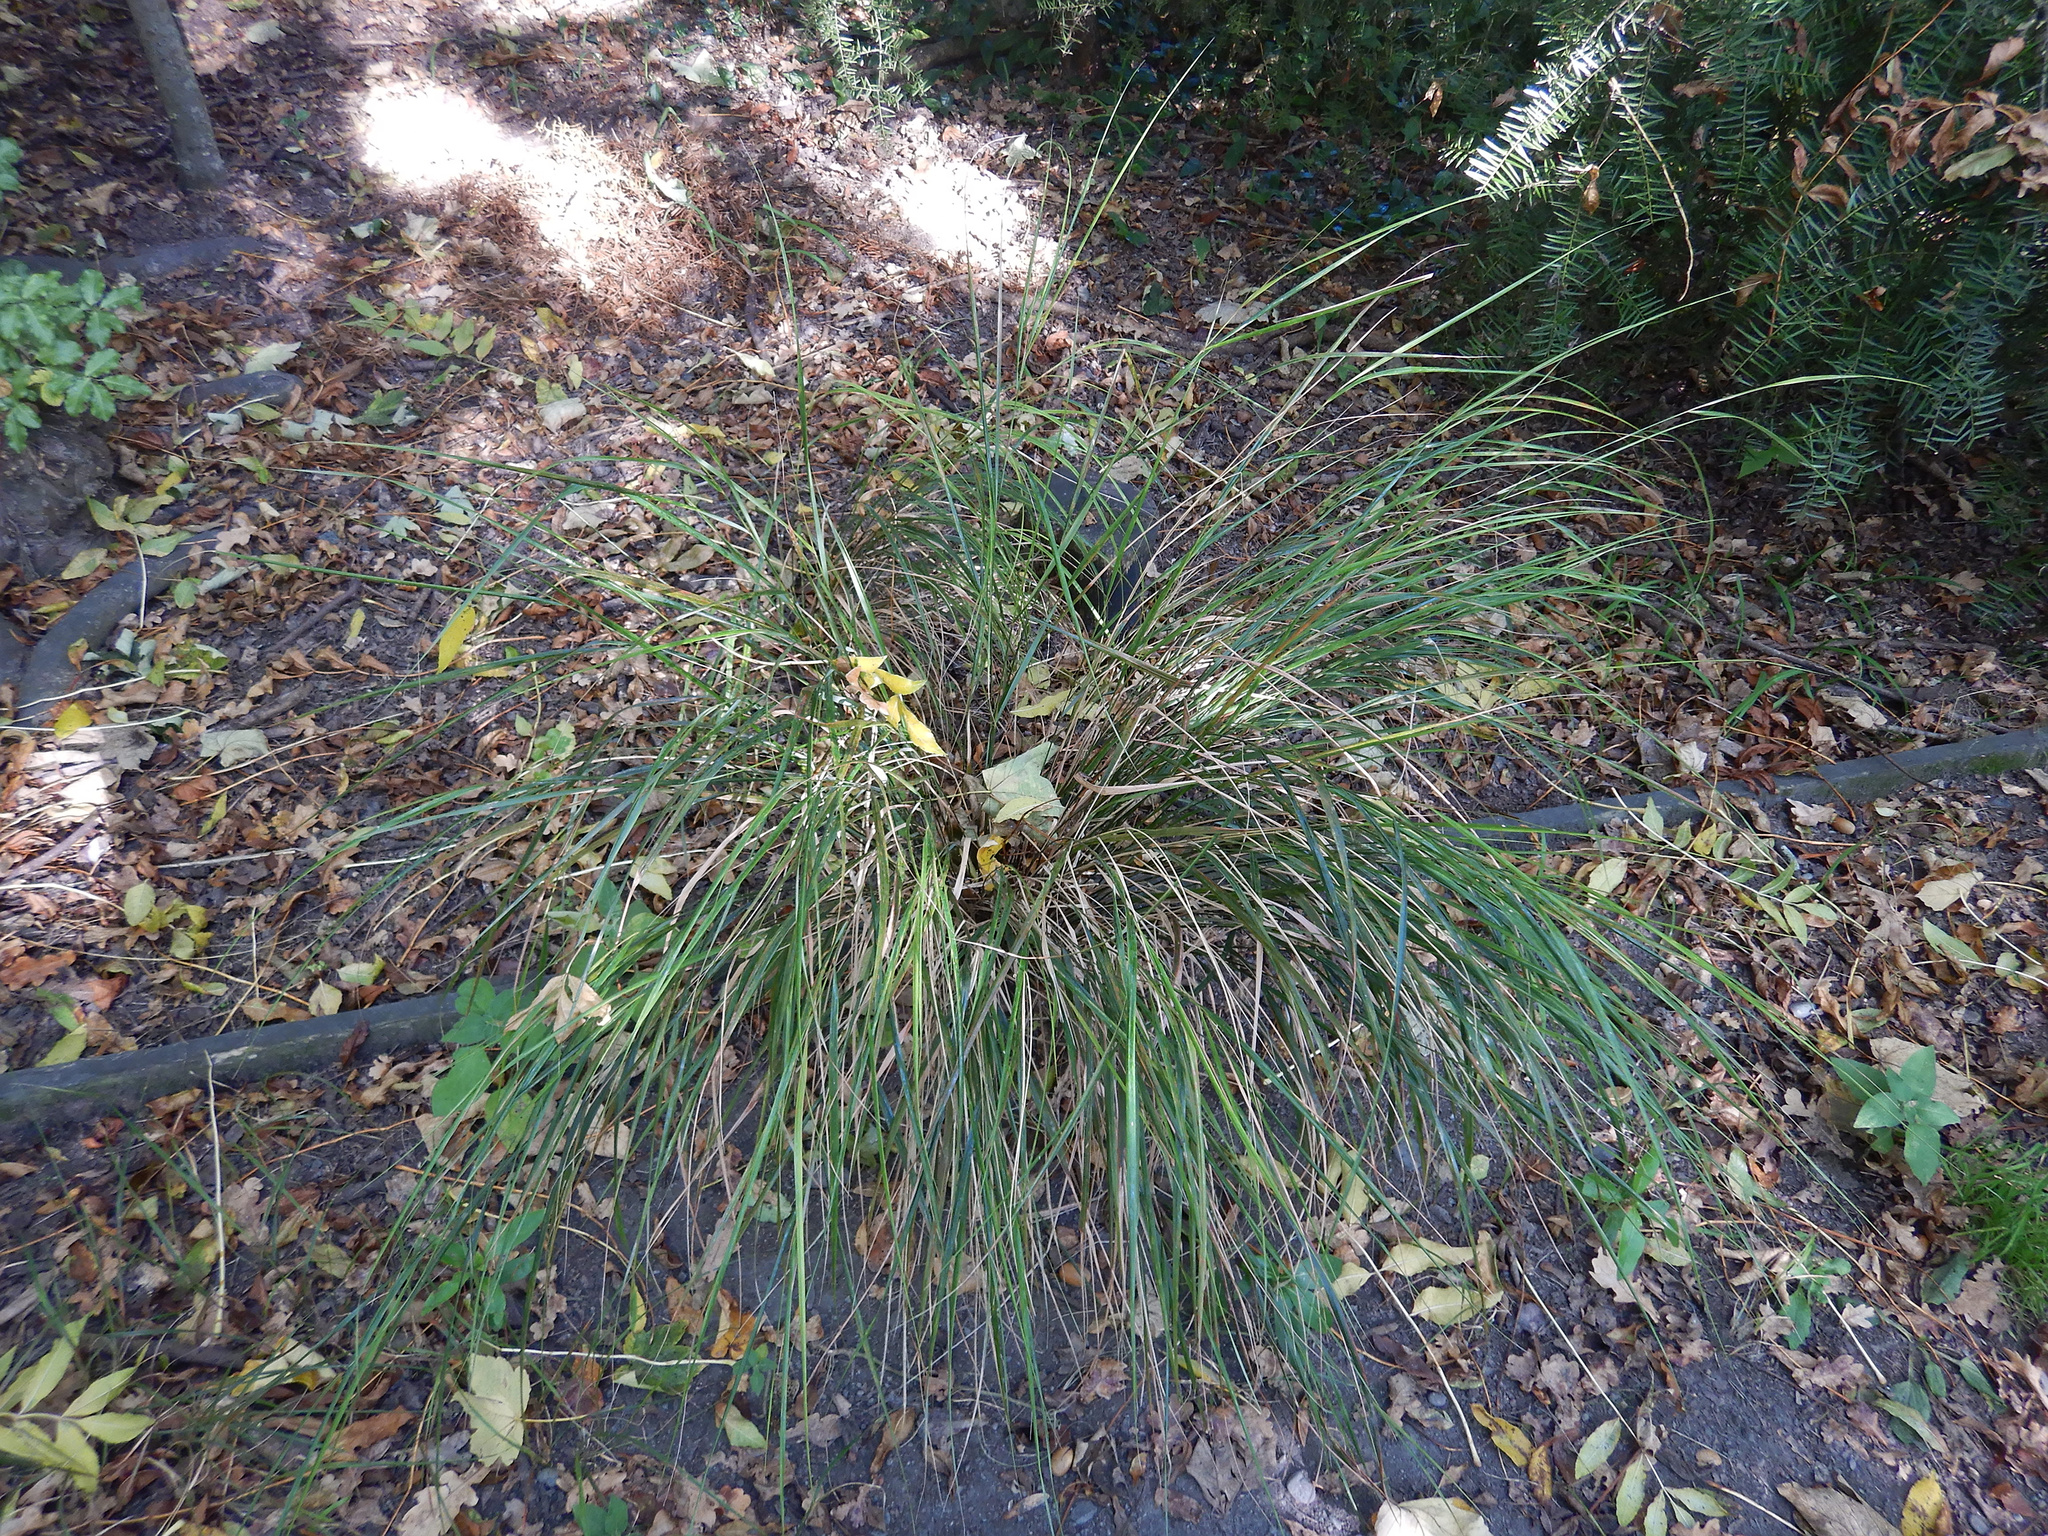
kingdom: Plantae
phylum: Tracheophyta
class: Liliopsida
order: Poales
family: Poaceae
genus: Anemanthele
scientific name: Anemanthele lessoniana
